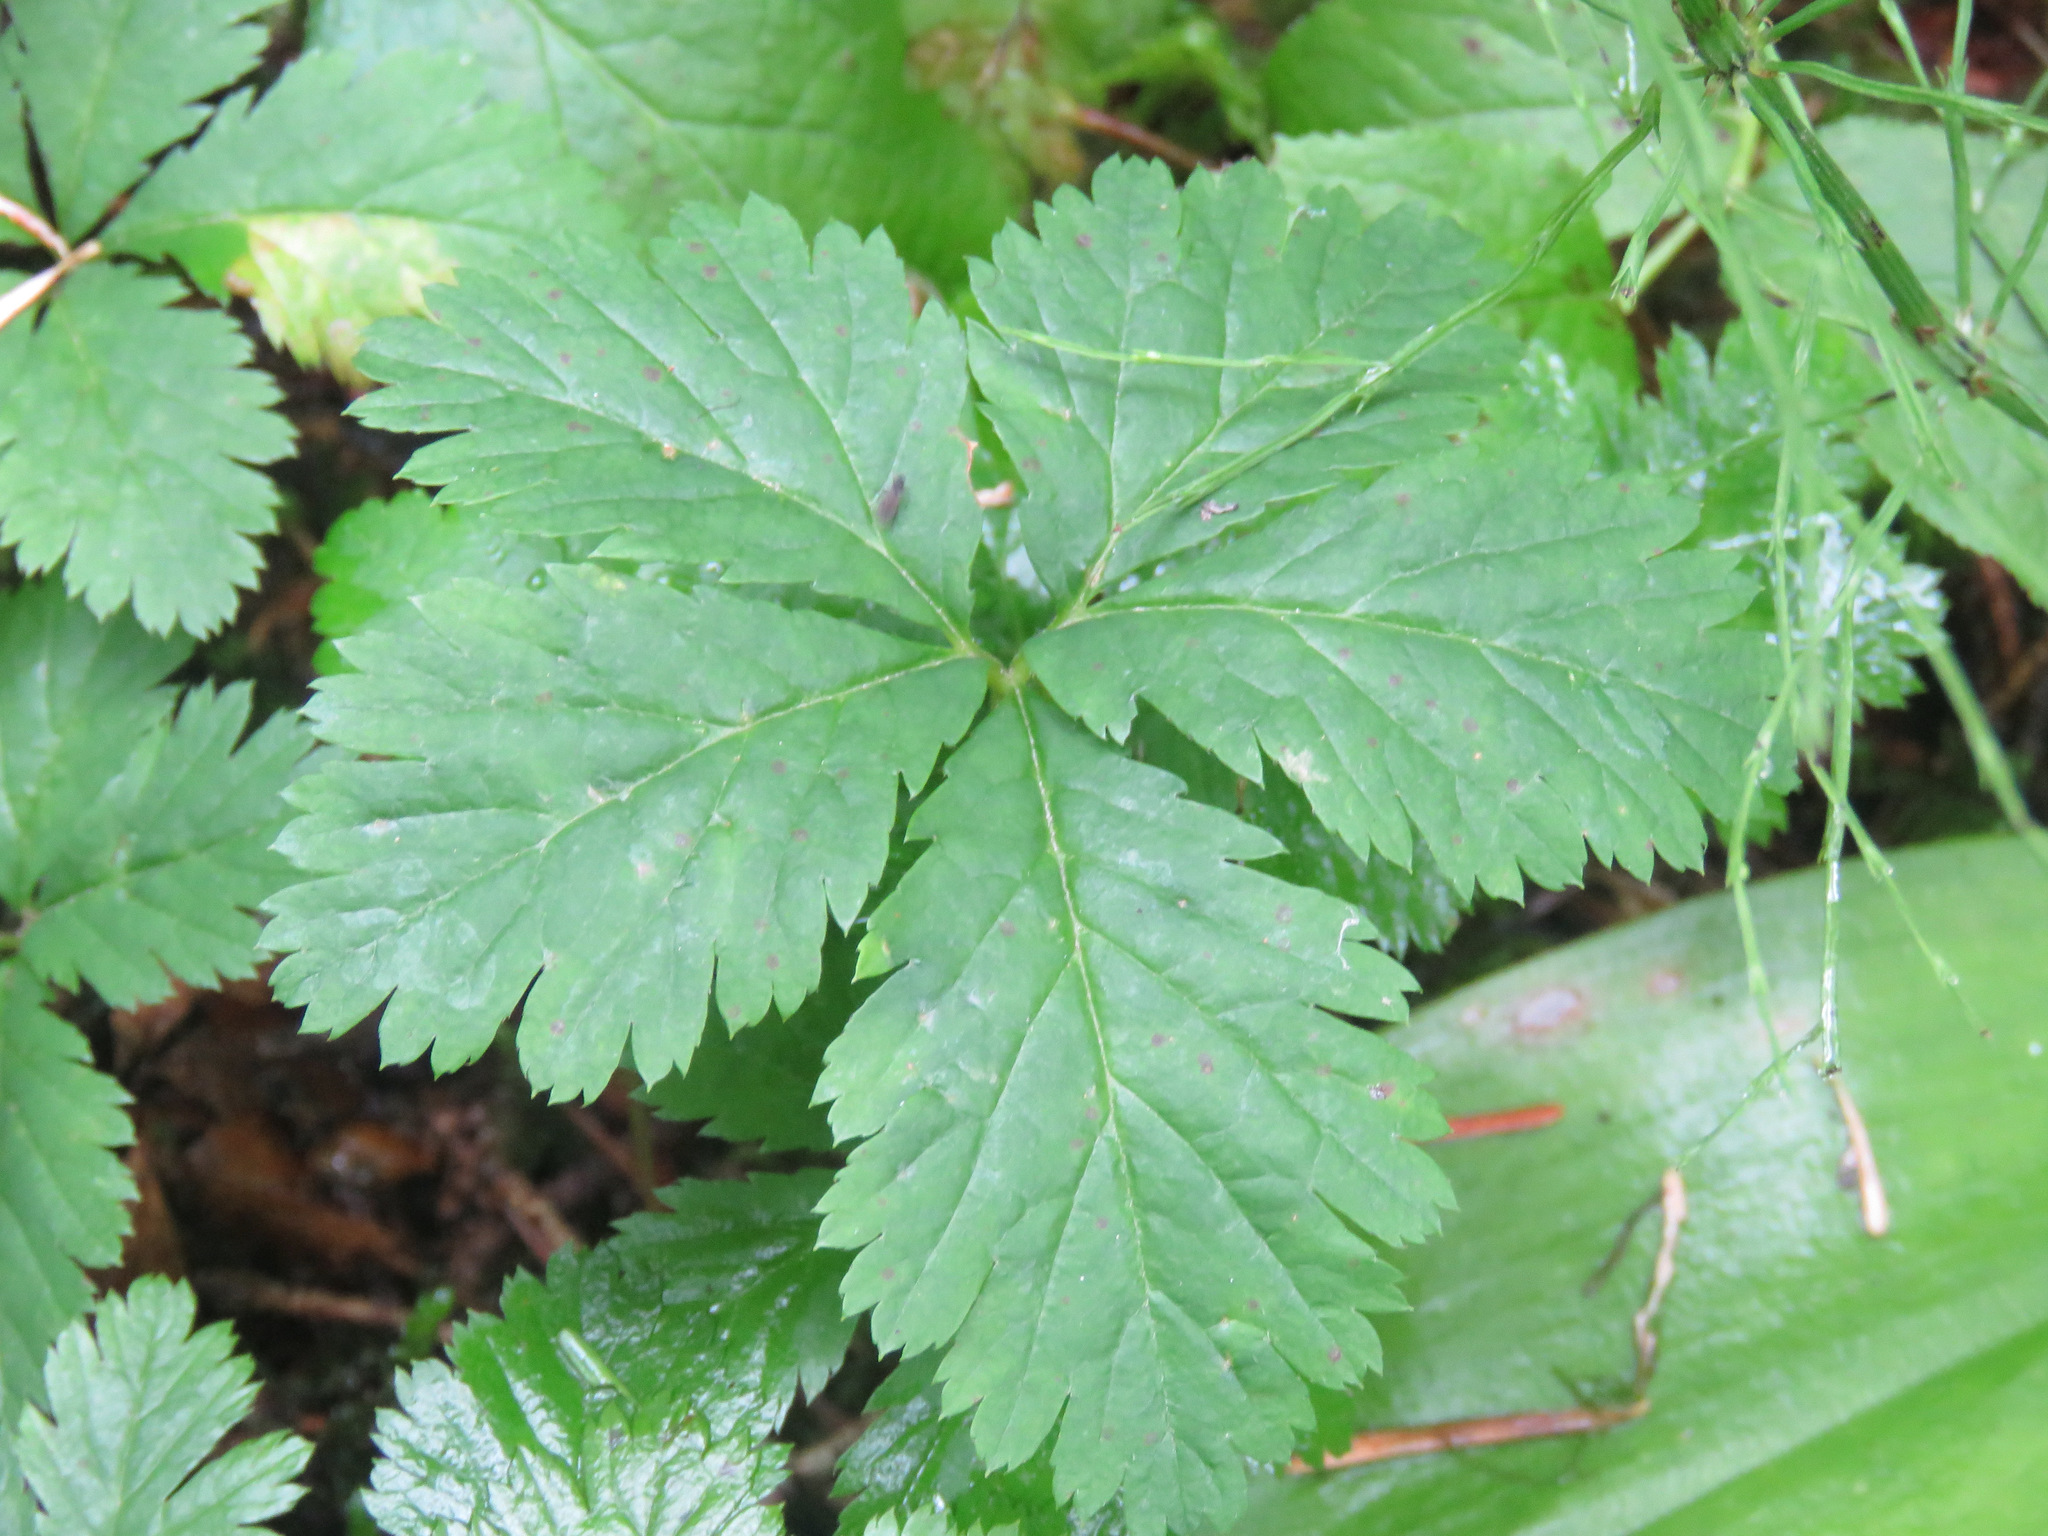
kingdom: Plantae
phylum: Tracheophyta
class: Magnoliopsida
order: Rosales
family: Rosaceae
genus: Rubus
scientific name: Rubus pedatus
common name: Creeping raspberry
